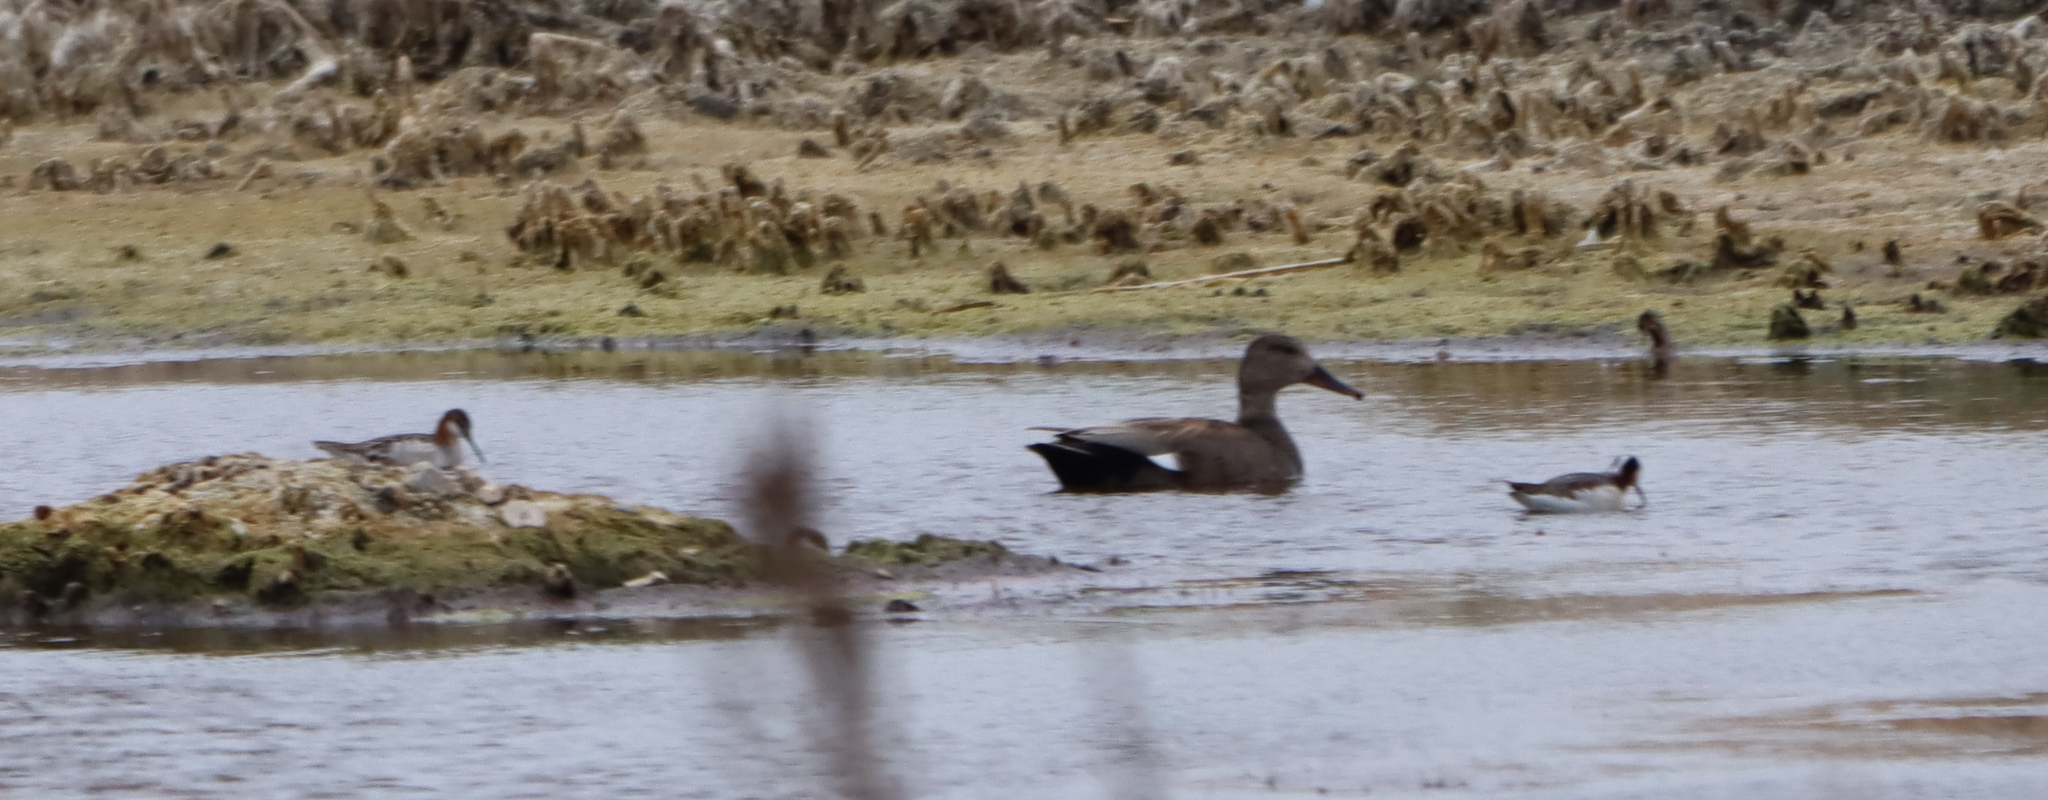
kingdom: Animalia
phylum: Chordata
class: Aves
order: Anseriformes
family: Anatidae
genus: Mareca
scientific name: Mareca strepera
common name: Gadwall
